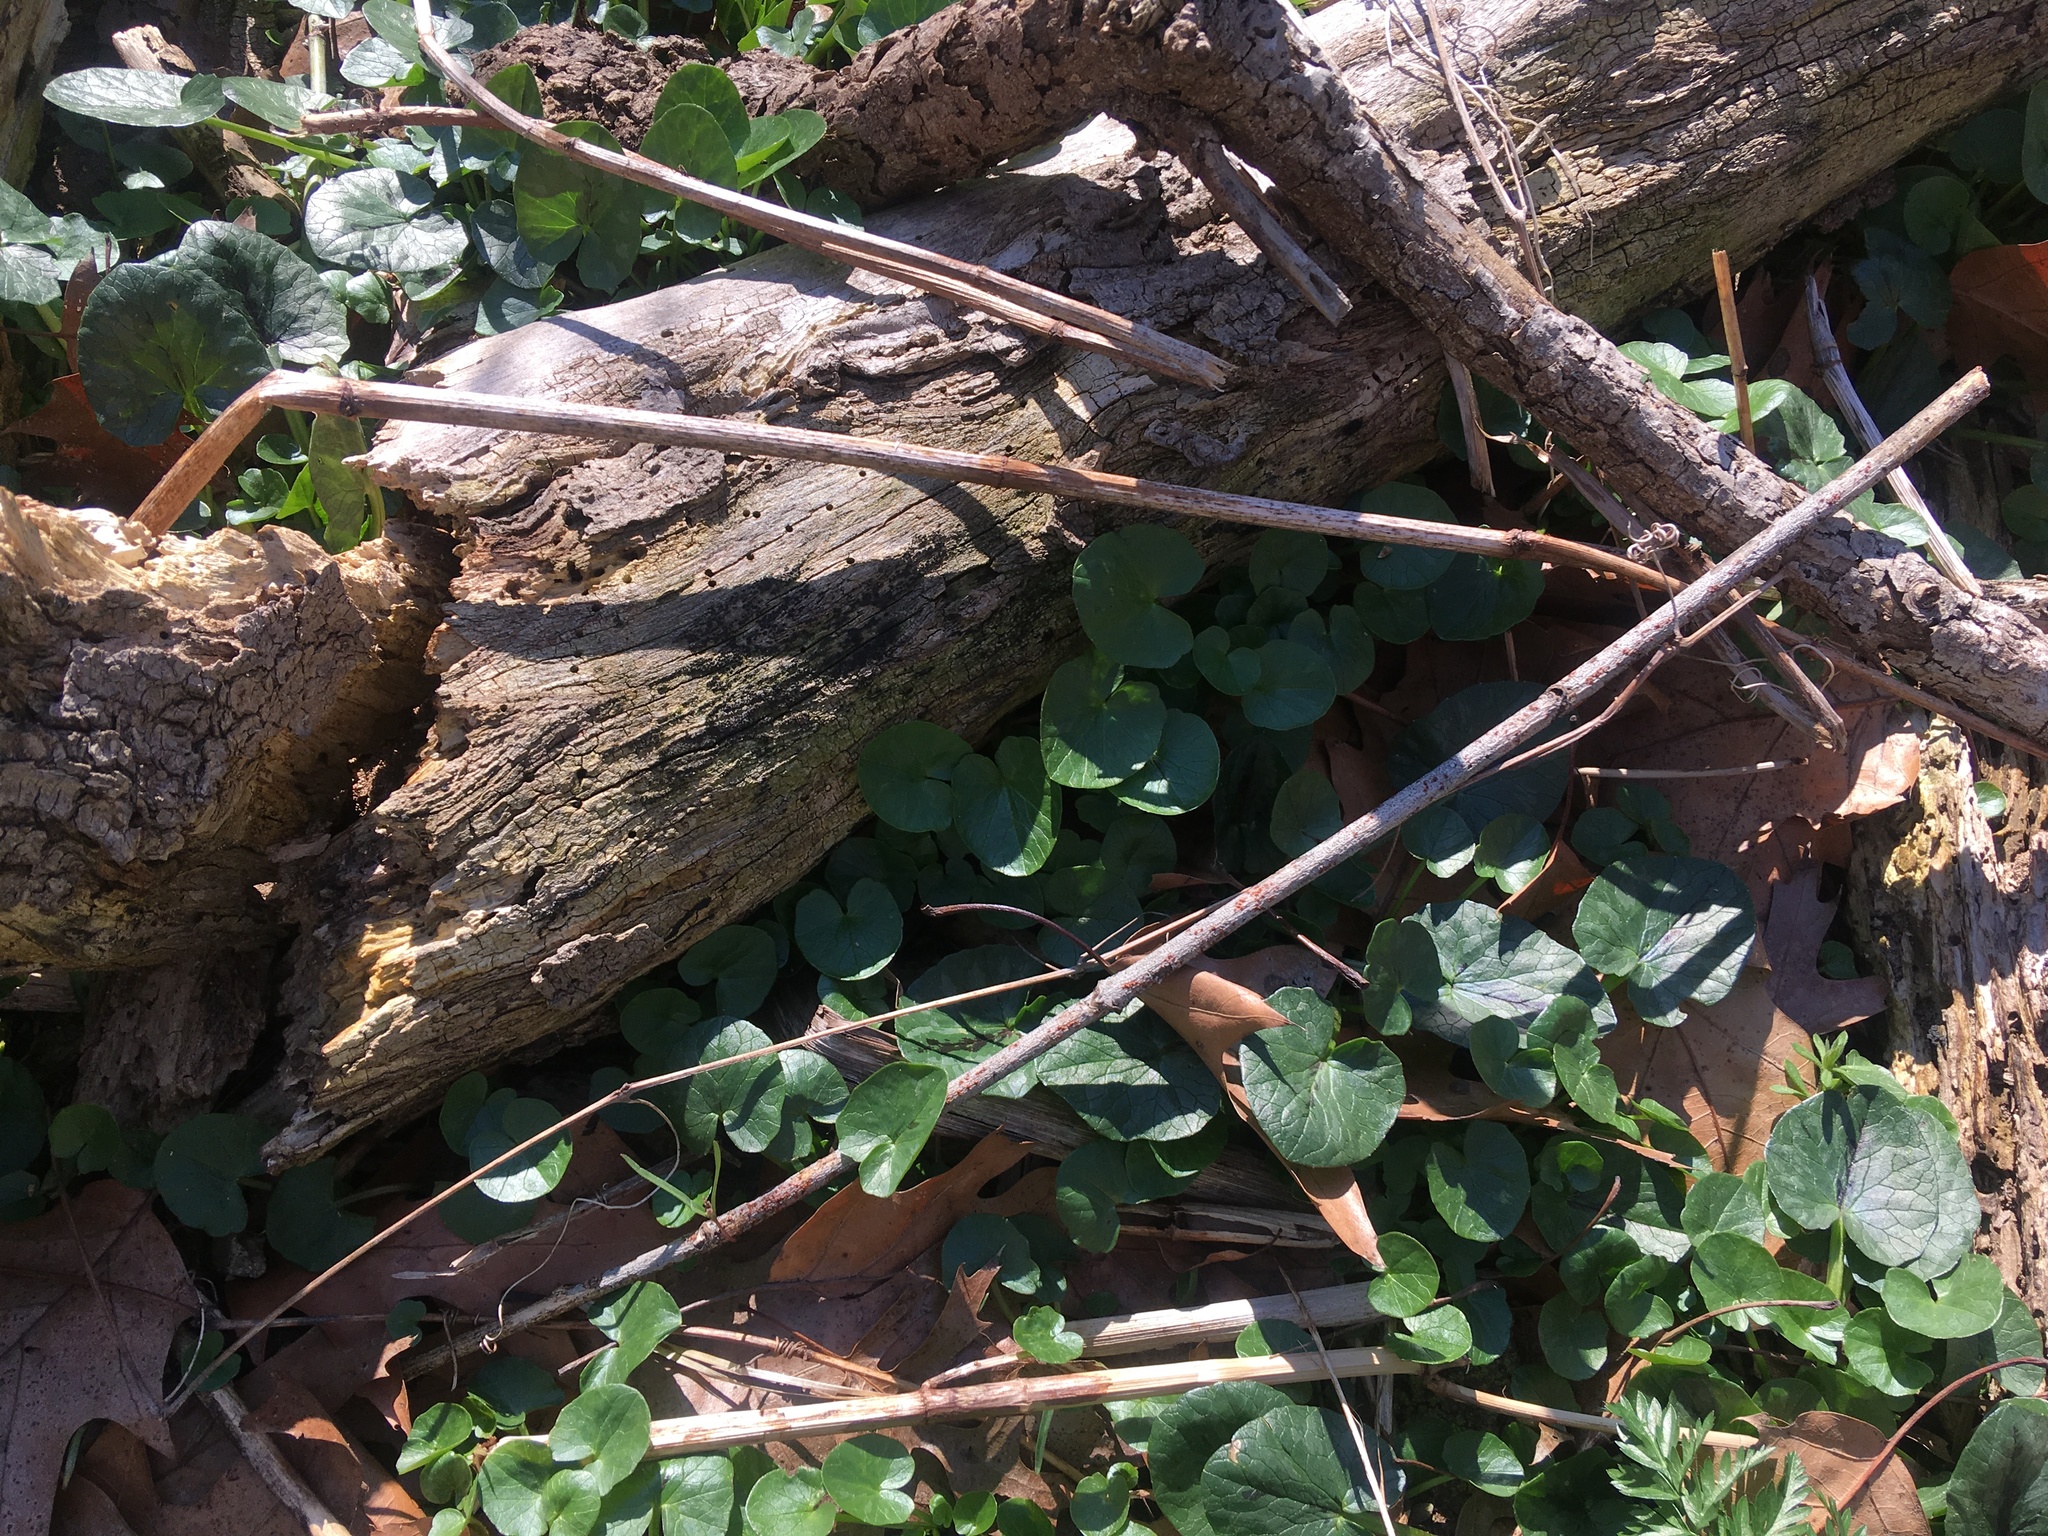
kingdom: Plantae
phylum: Tracheophyta
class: Magnoliopsida
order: Ranunculales
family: Ranunculaceae
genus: Ficaria
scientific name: Ficaria verna
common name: Lesser celandine
